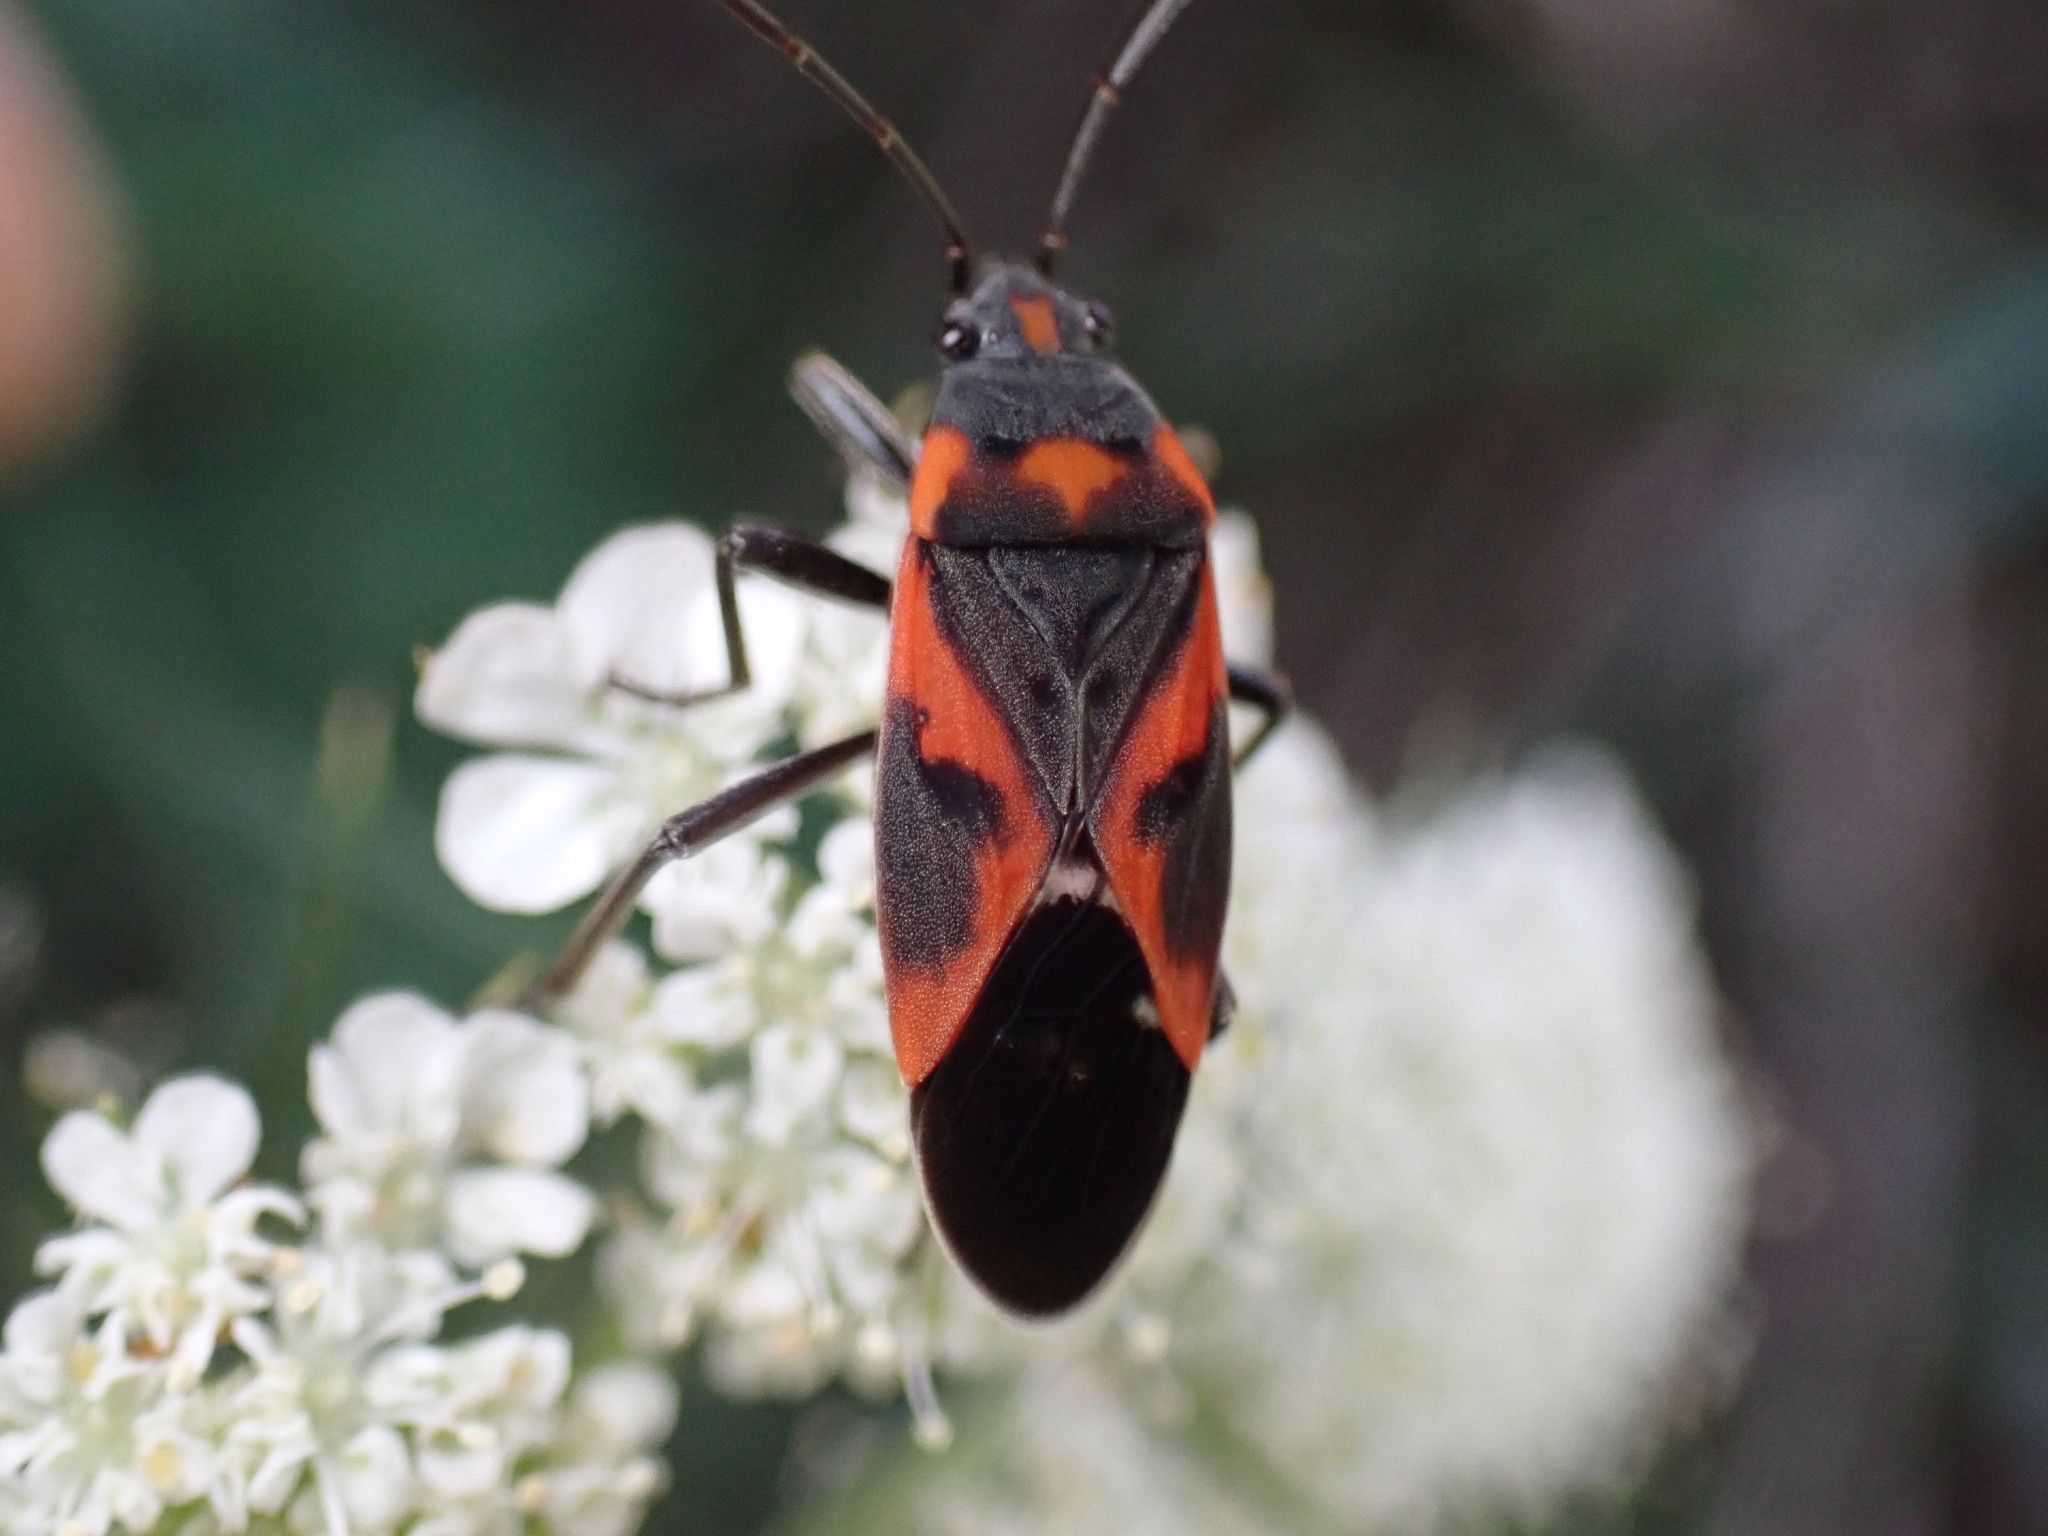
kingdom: Animalia
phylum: Arthropoda
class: Insecta
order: Hemiptera
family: Lygaeidae
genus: Lygaeus
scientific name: Lygaeus kalmii
